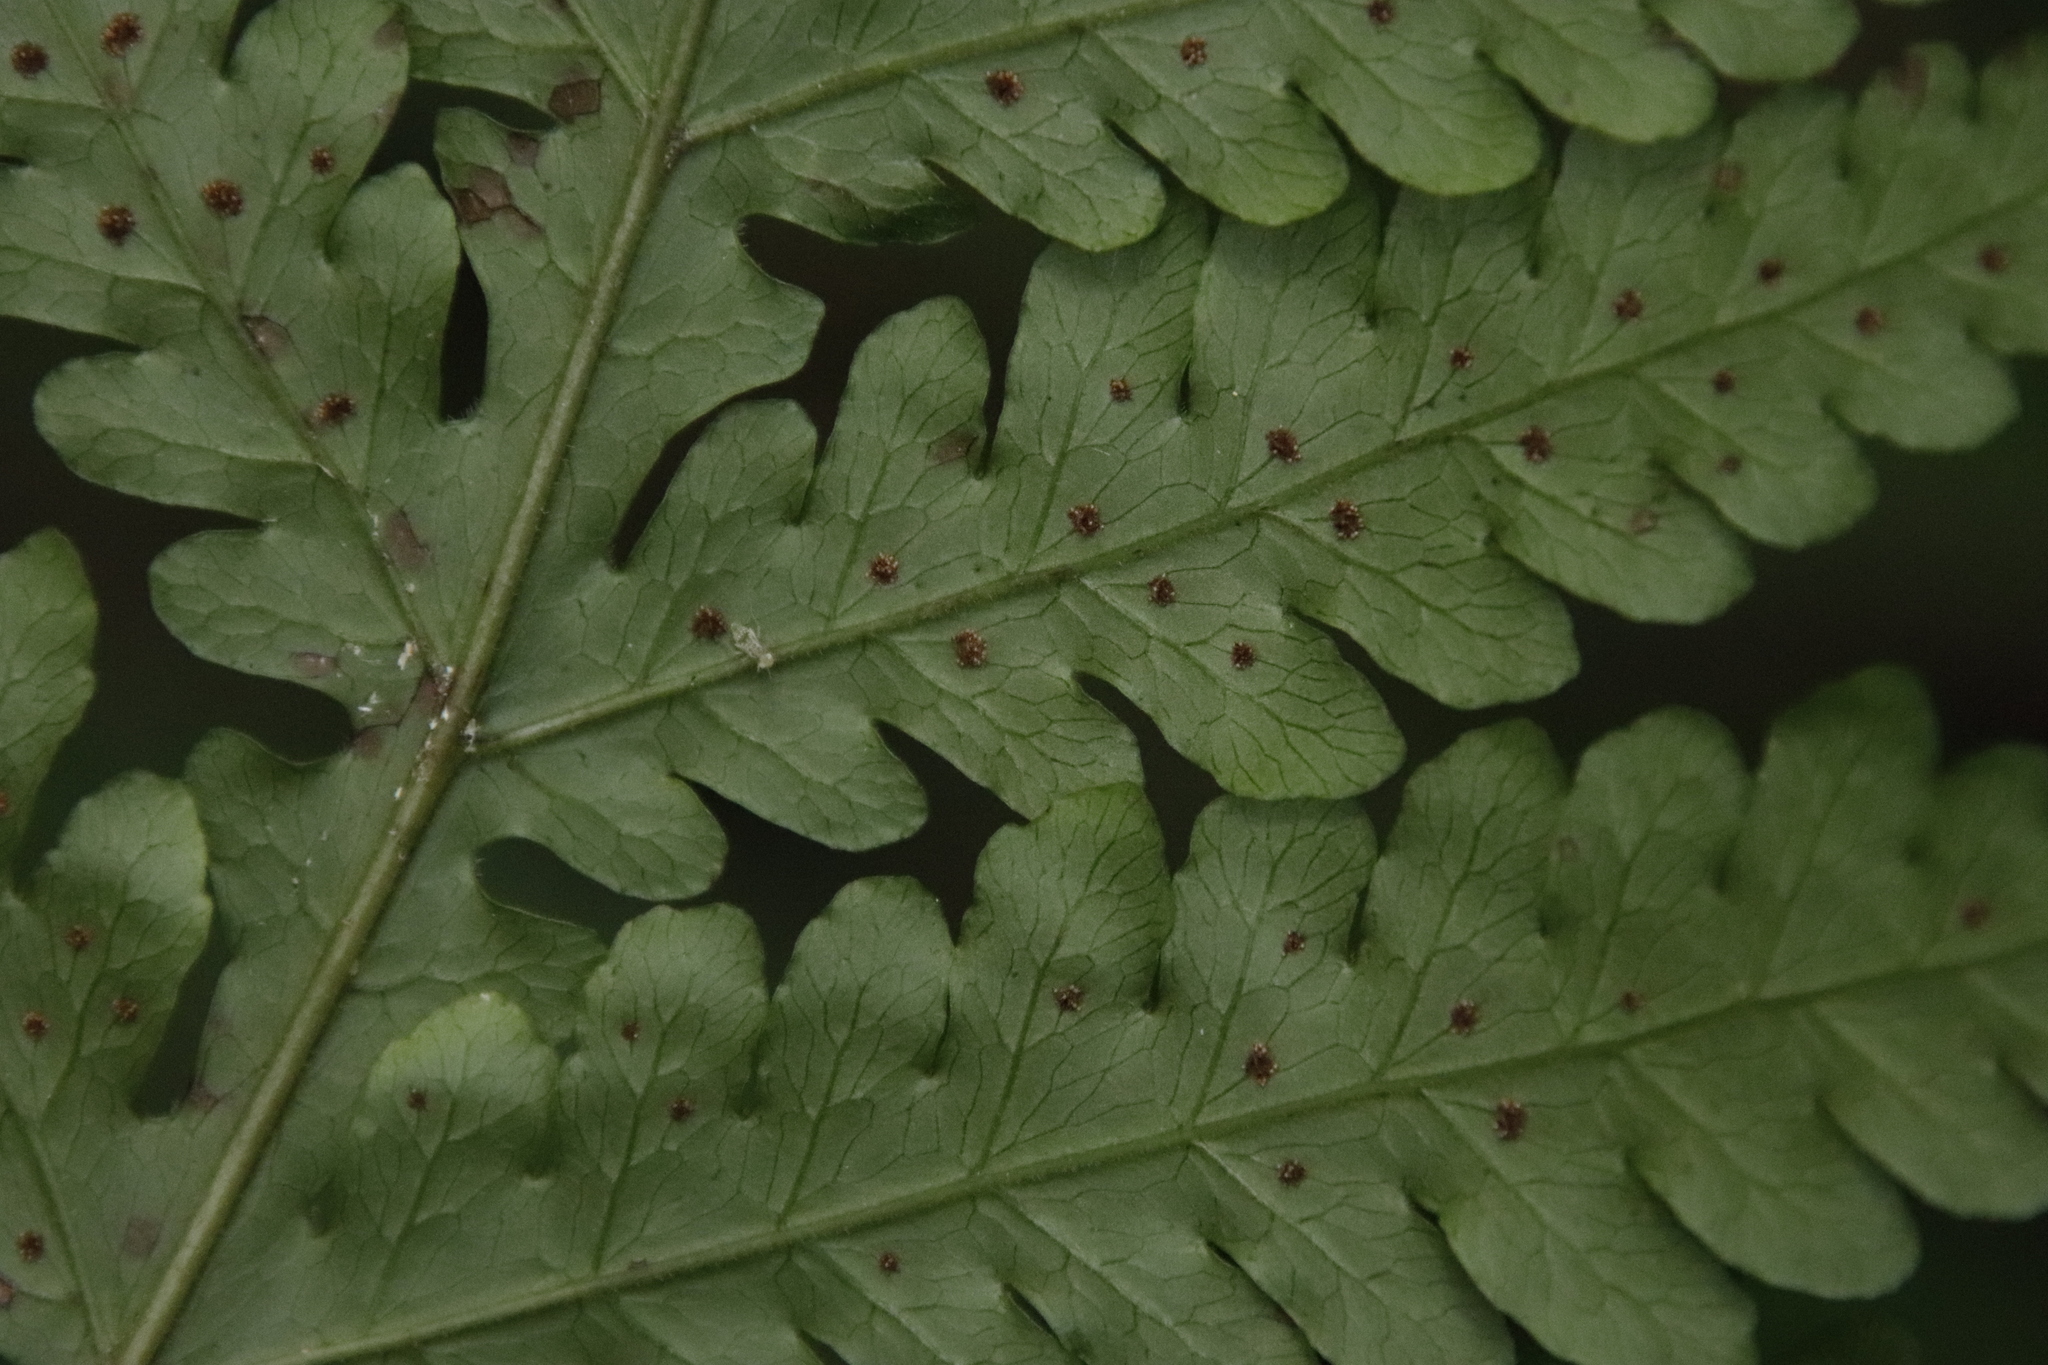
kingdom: Plantae
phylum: Tracheophyta
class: Polypodiopsida
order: Polypodiales
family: Tectariaceae
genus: Tectaria
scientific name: Tectaria gemmifera
